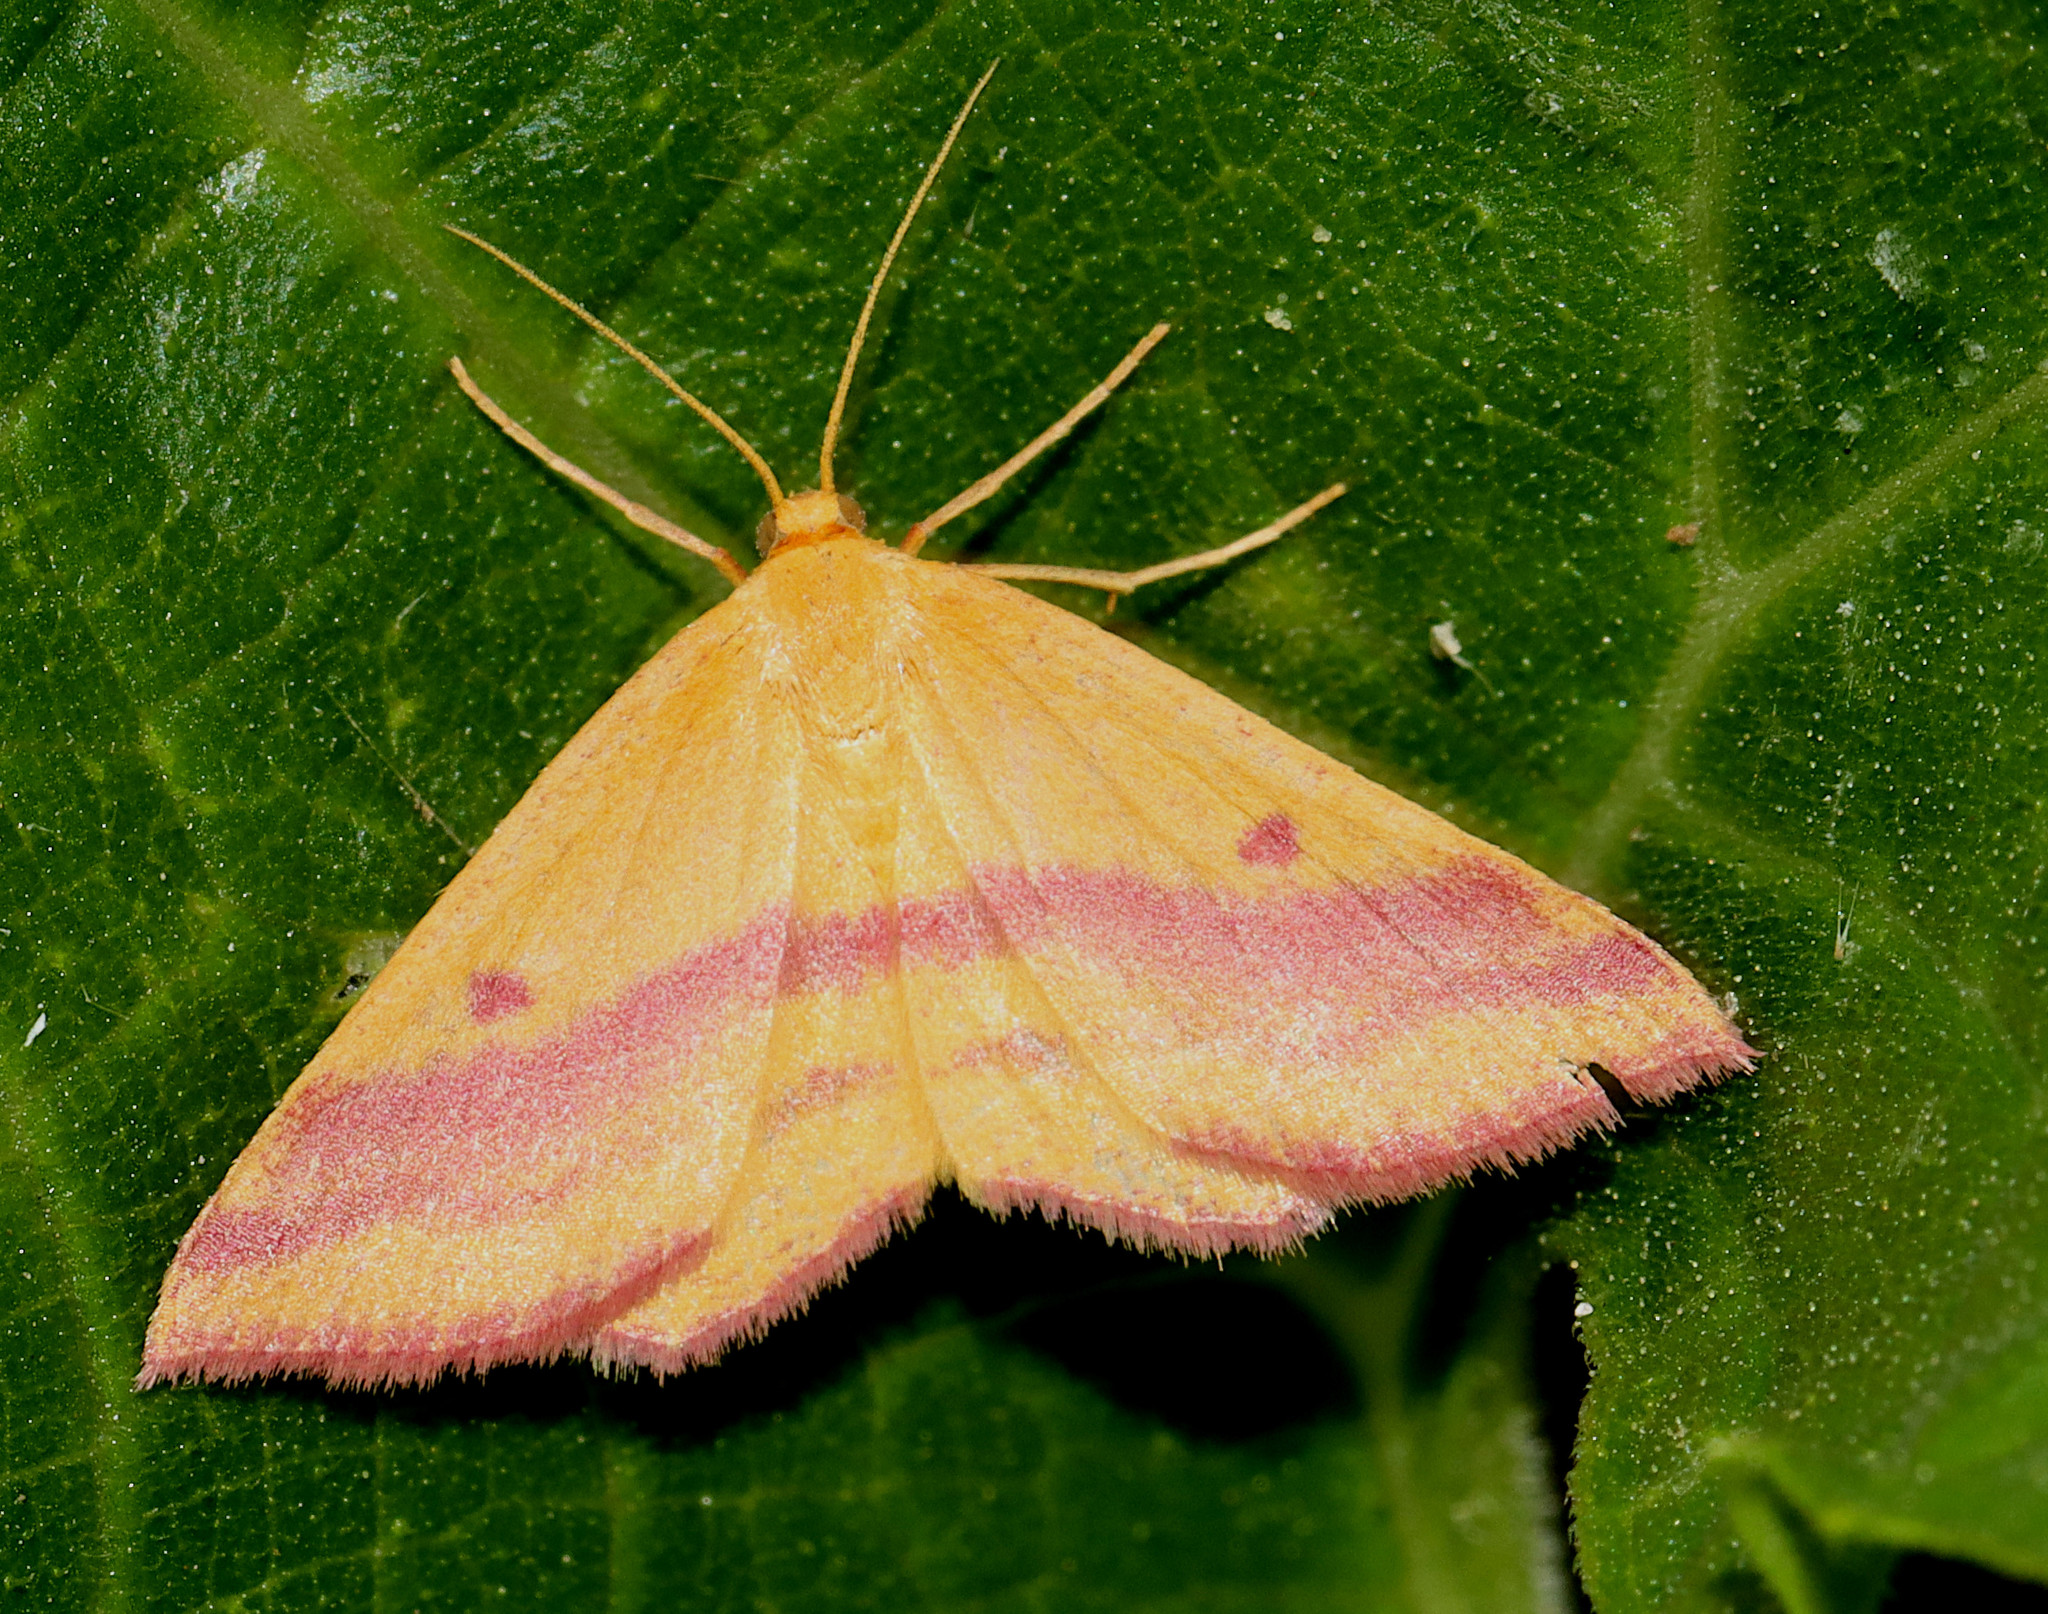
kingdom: Animalia
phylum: Arthropoda
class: Insecta
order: Lepidoptera
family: Geometridae
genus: Haematopis
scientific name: Haematopis grataria
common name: Chickweed geometer
